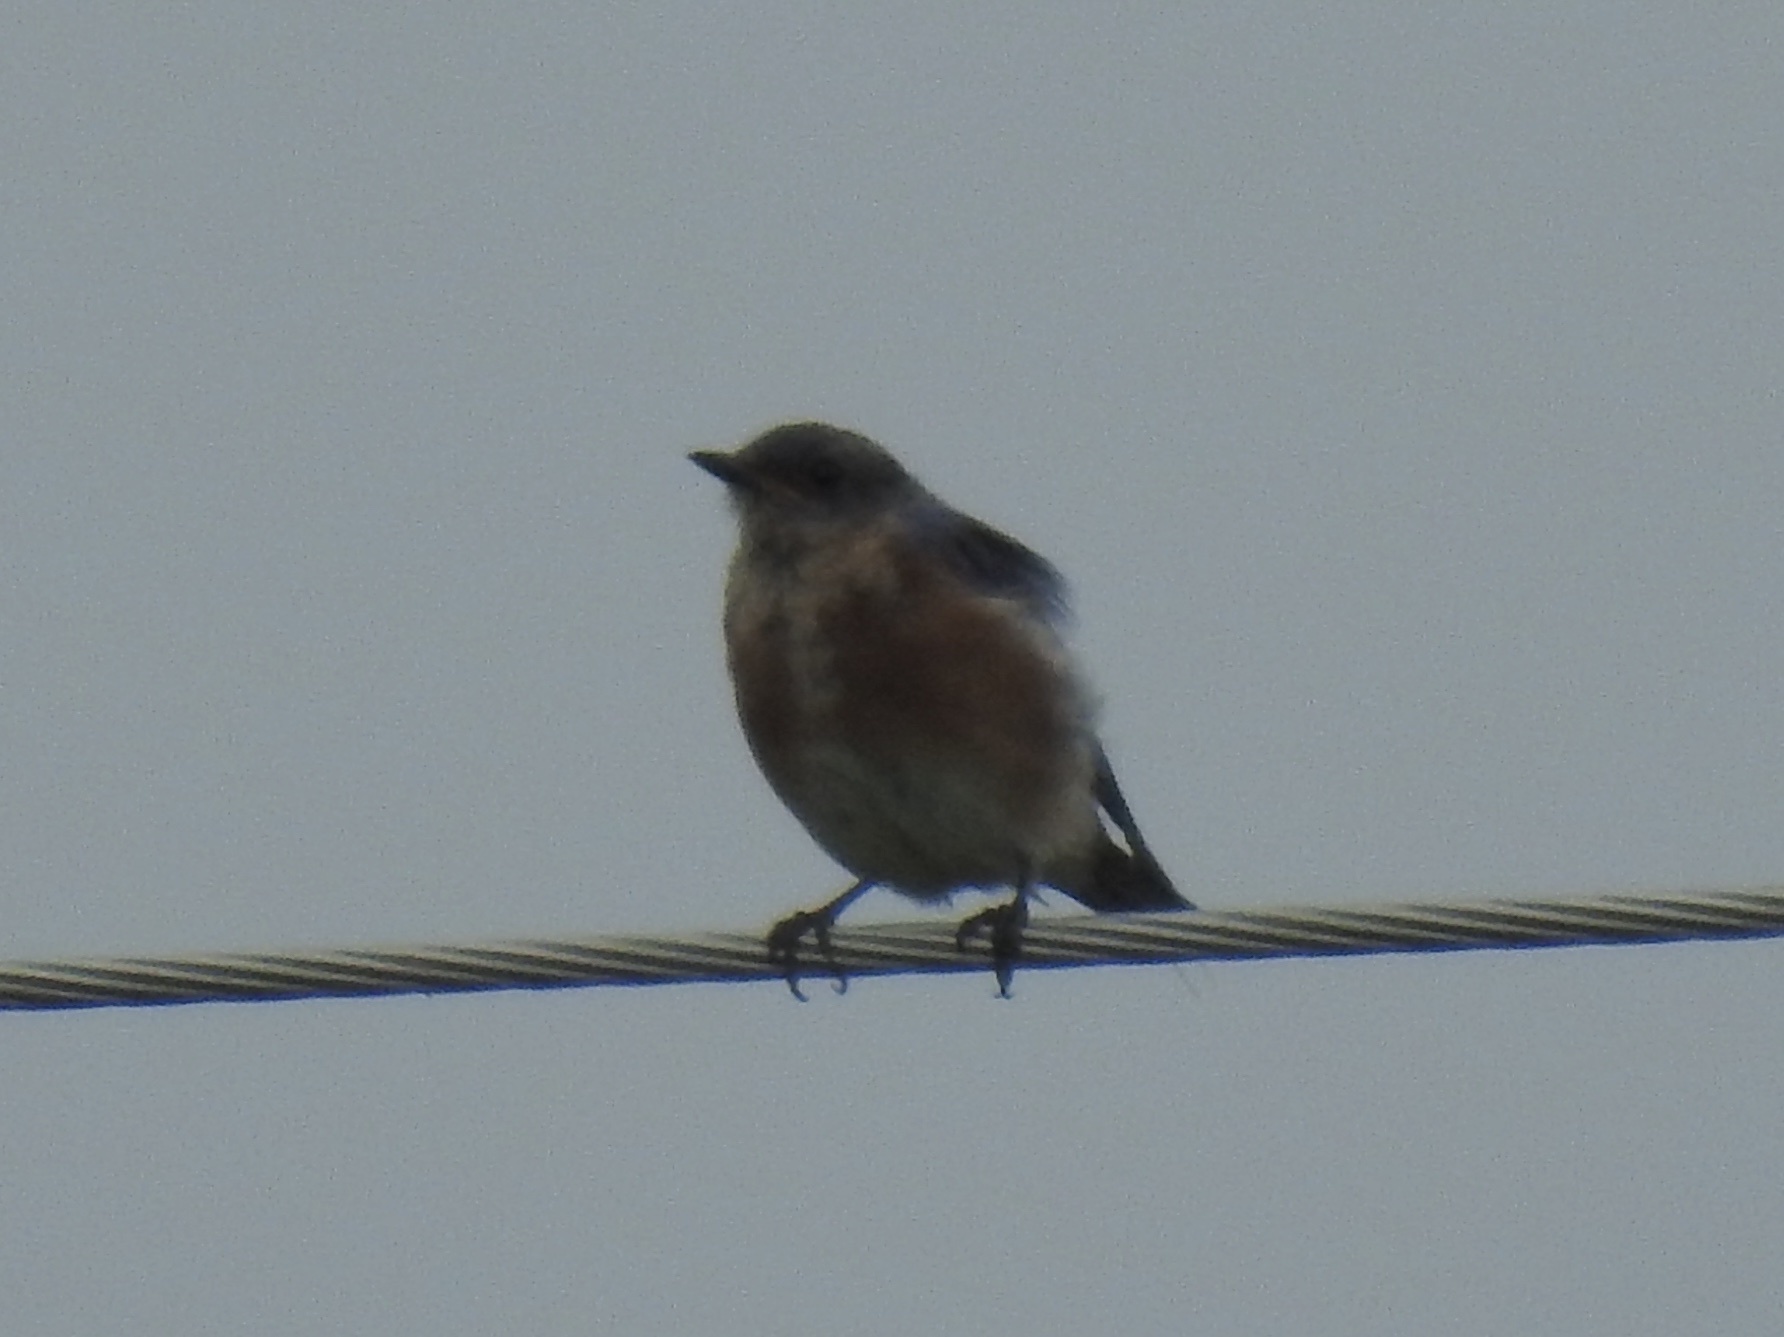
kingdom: Animalia
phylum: Chordata
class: Aves
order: Passeriformes
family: Turdidae
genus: Sialia
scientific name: Sialia sialis
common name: Eastern bluebird
